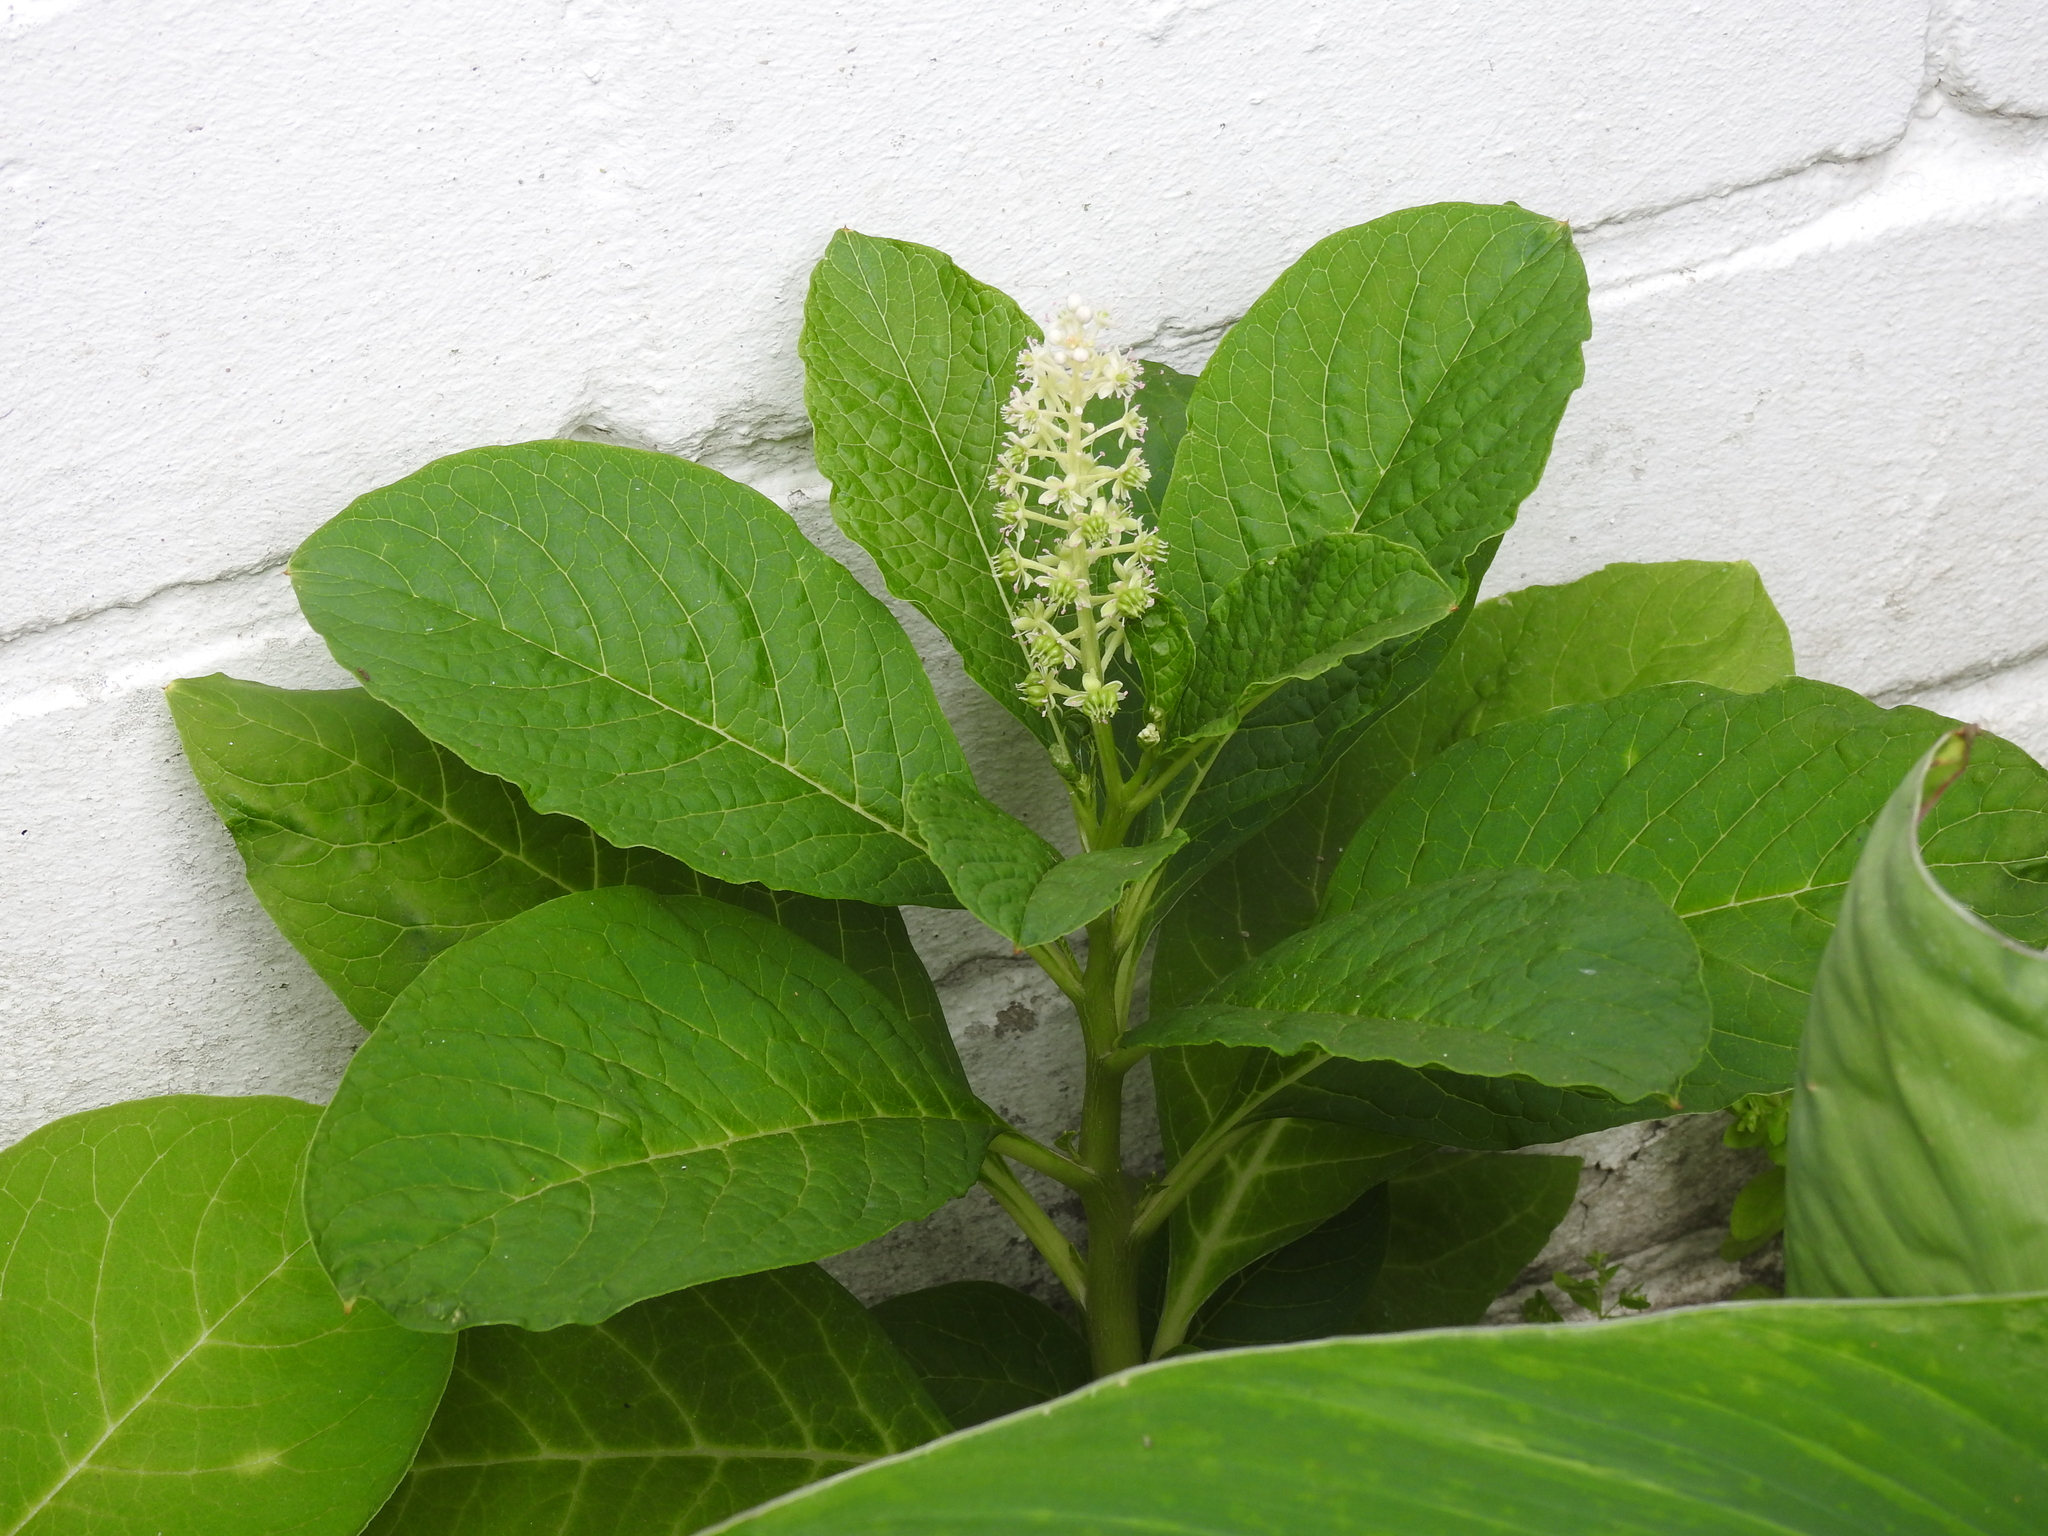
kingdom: Plantae
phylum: Tracheophyta
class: Magnoliopsida
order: Caryophyllales
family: Phytolaccaceae
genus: Phytolacca
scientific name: Phytolacca acinosa
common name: Indian pokeweed
